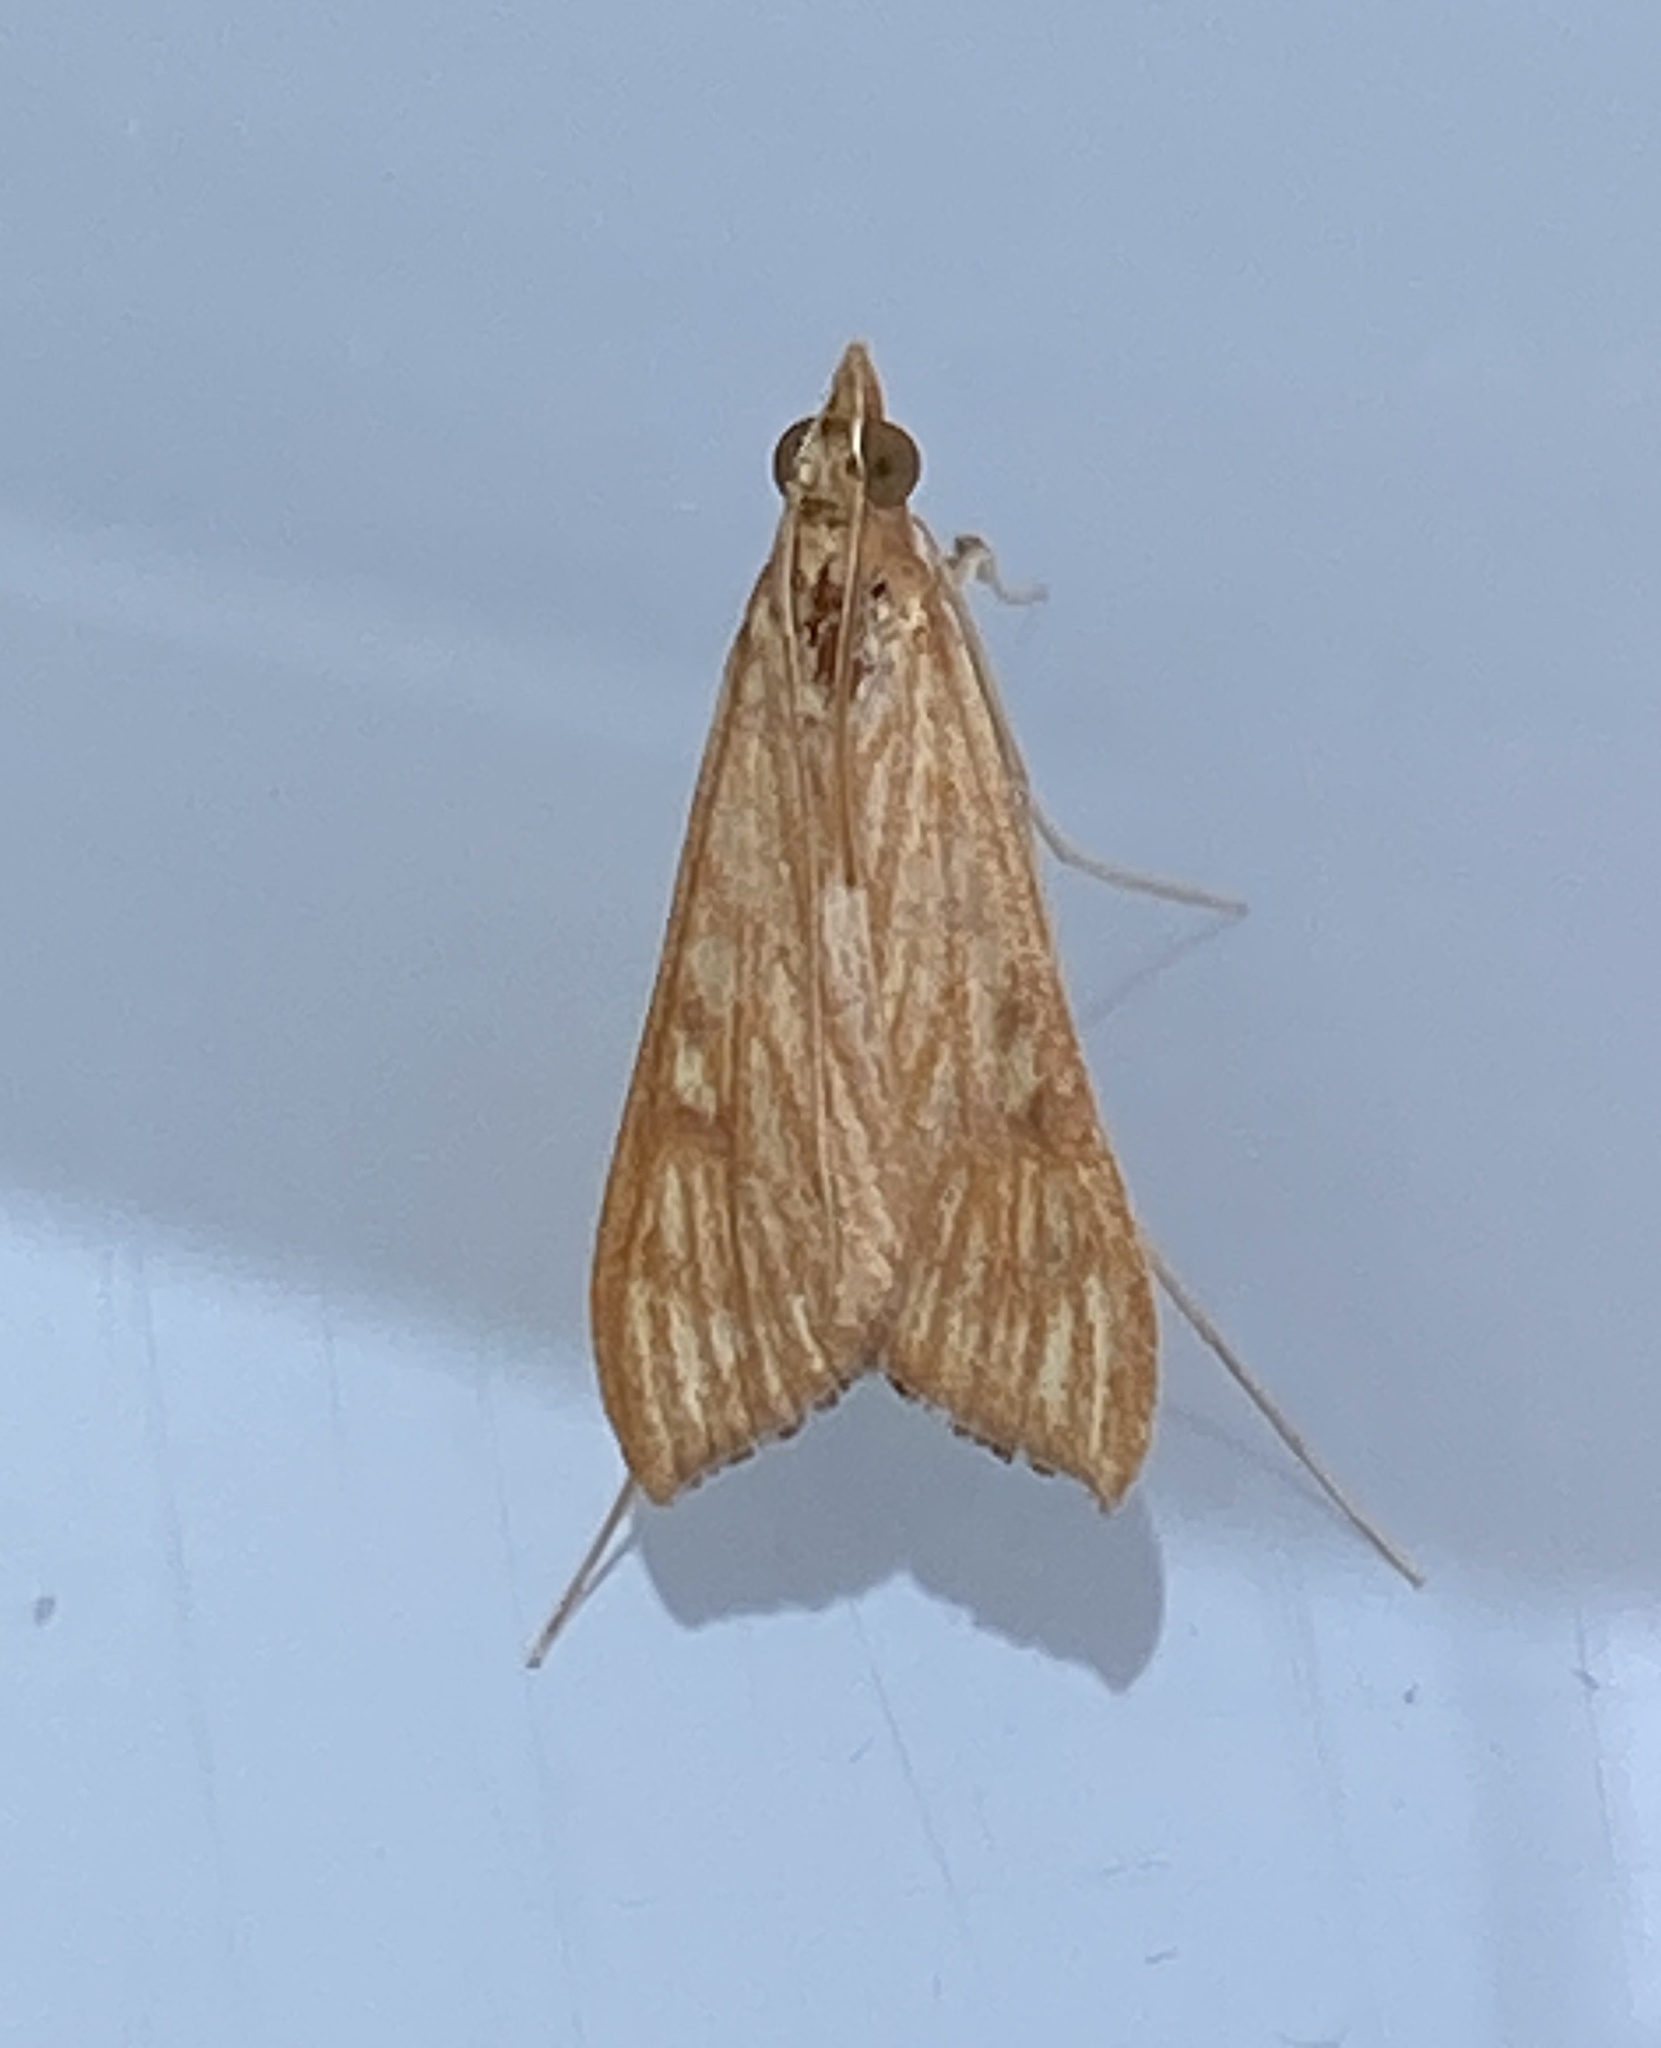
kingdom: Animalia
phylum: Arthropoda
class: Insecta
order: Lepidoptera
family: Crambidae
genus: Antigastra
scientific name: Antigastra catalaunalis
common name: Spanish dot
